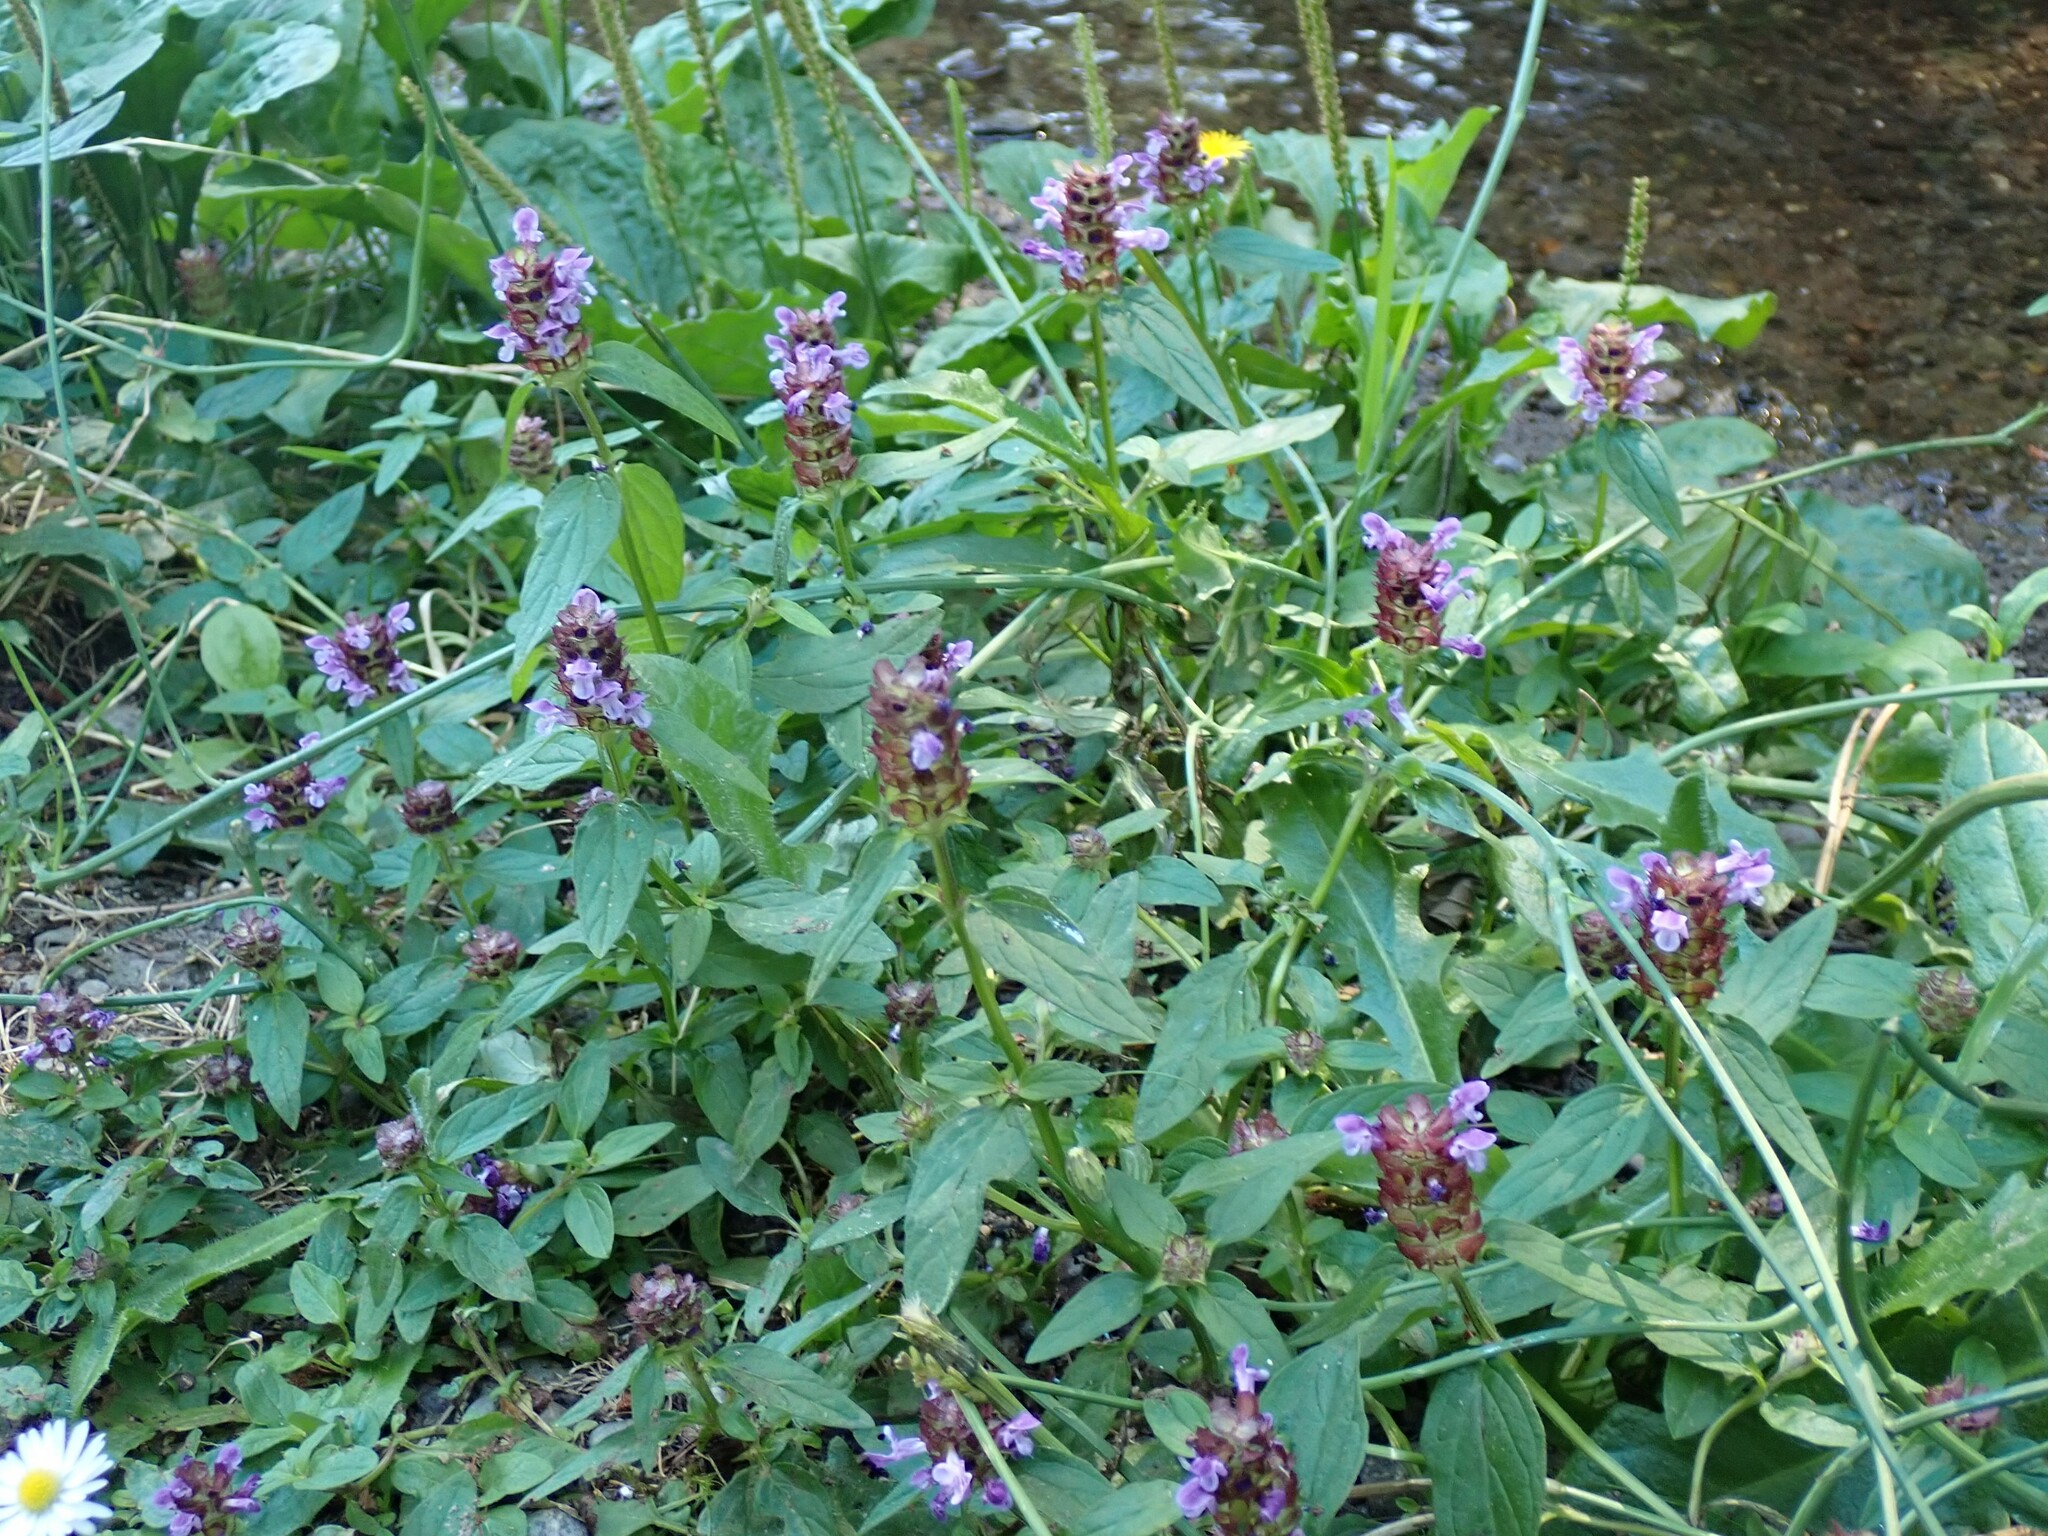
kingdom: Plantae
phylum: Tracheophyta
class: Magnoliopsida
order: Lamiales
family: Lamiaceae
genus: Prunella
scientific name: Prunella vulgaris
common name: Heal-all
